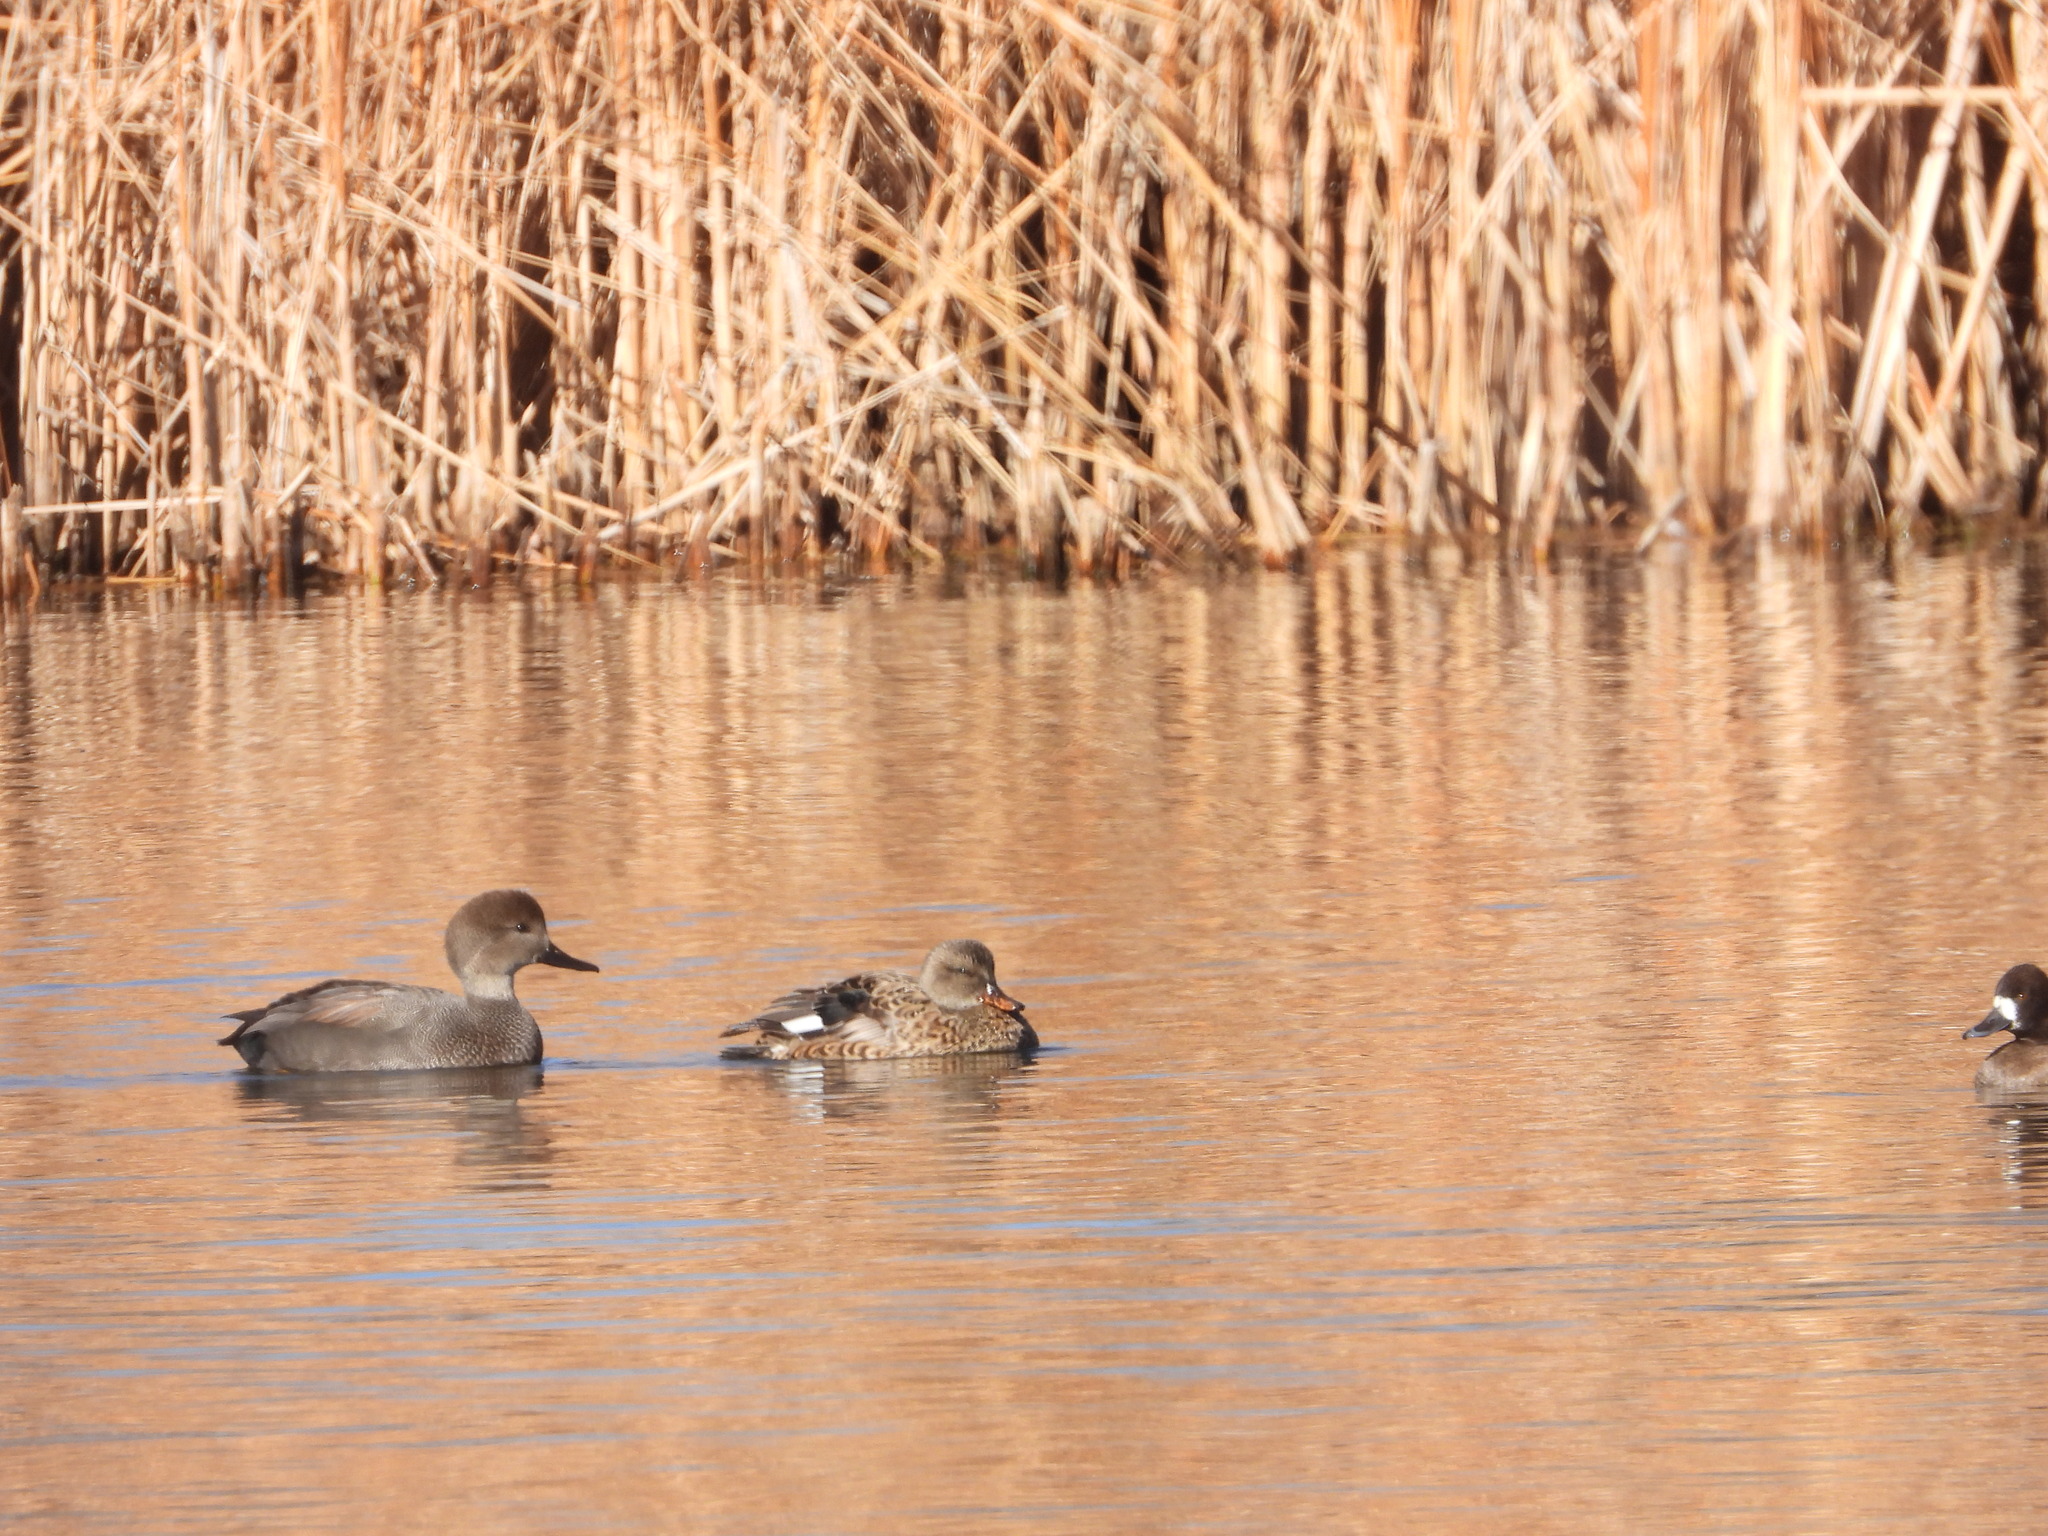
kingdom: Animalia
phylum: Chordata
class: Aves
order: Anseriformes
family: Anatidae
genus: Mareca
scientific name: Mareca strepera
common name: Gadwall
